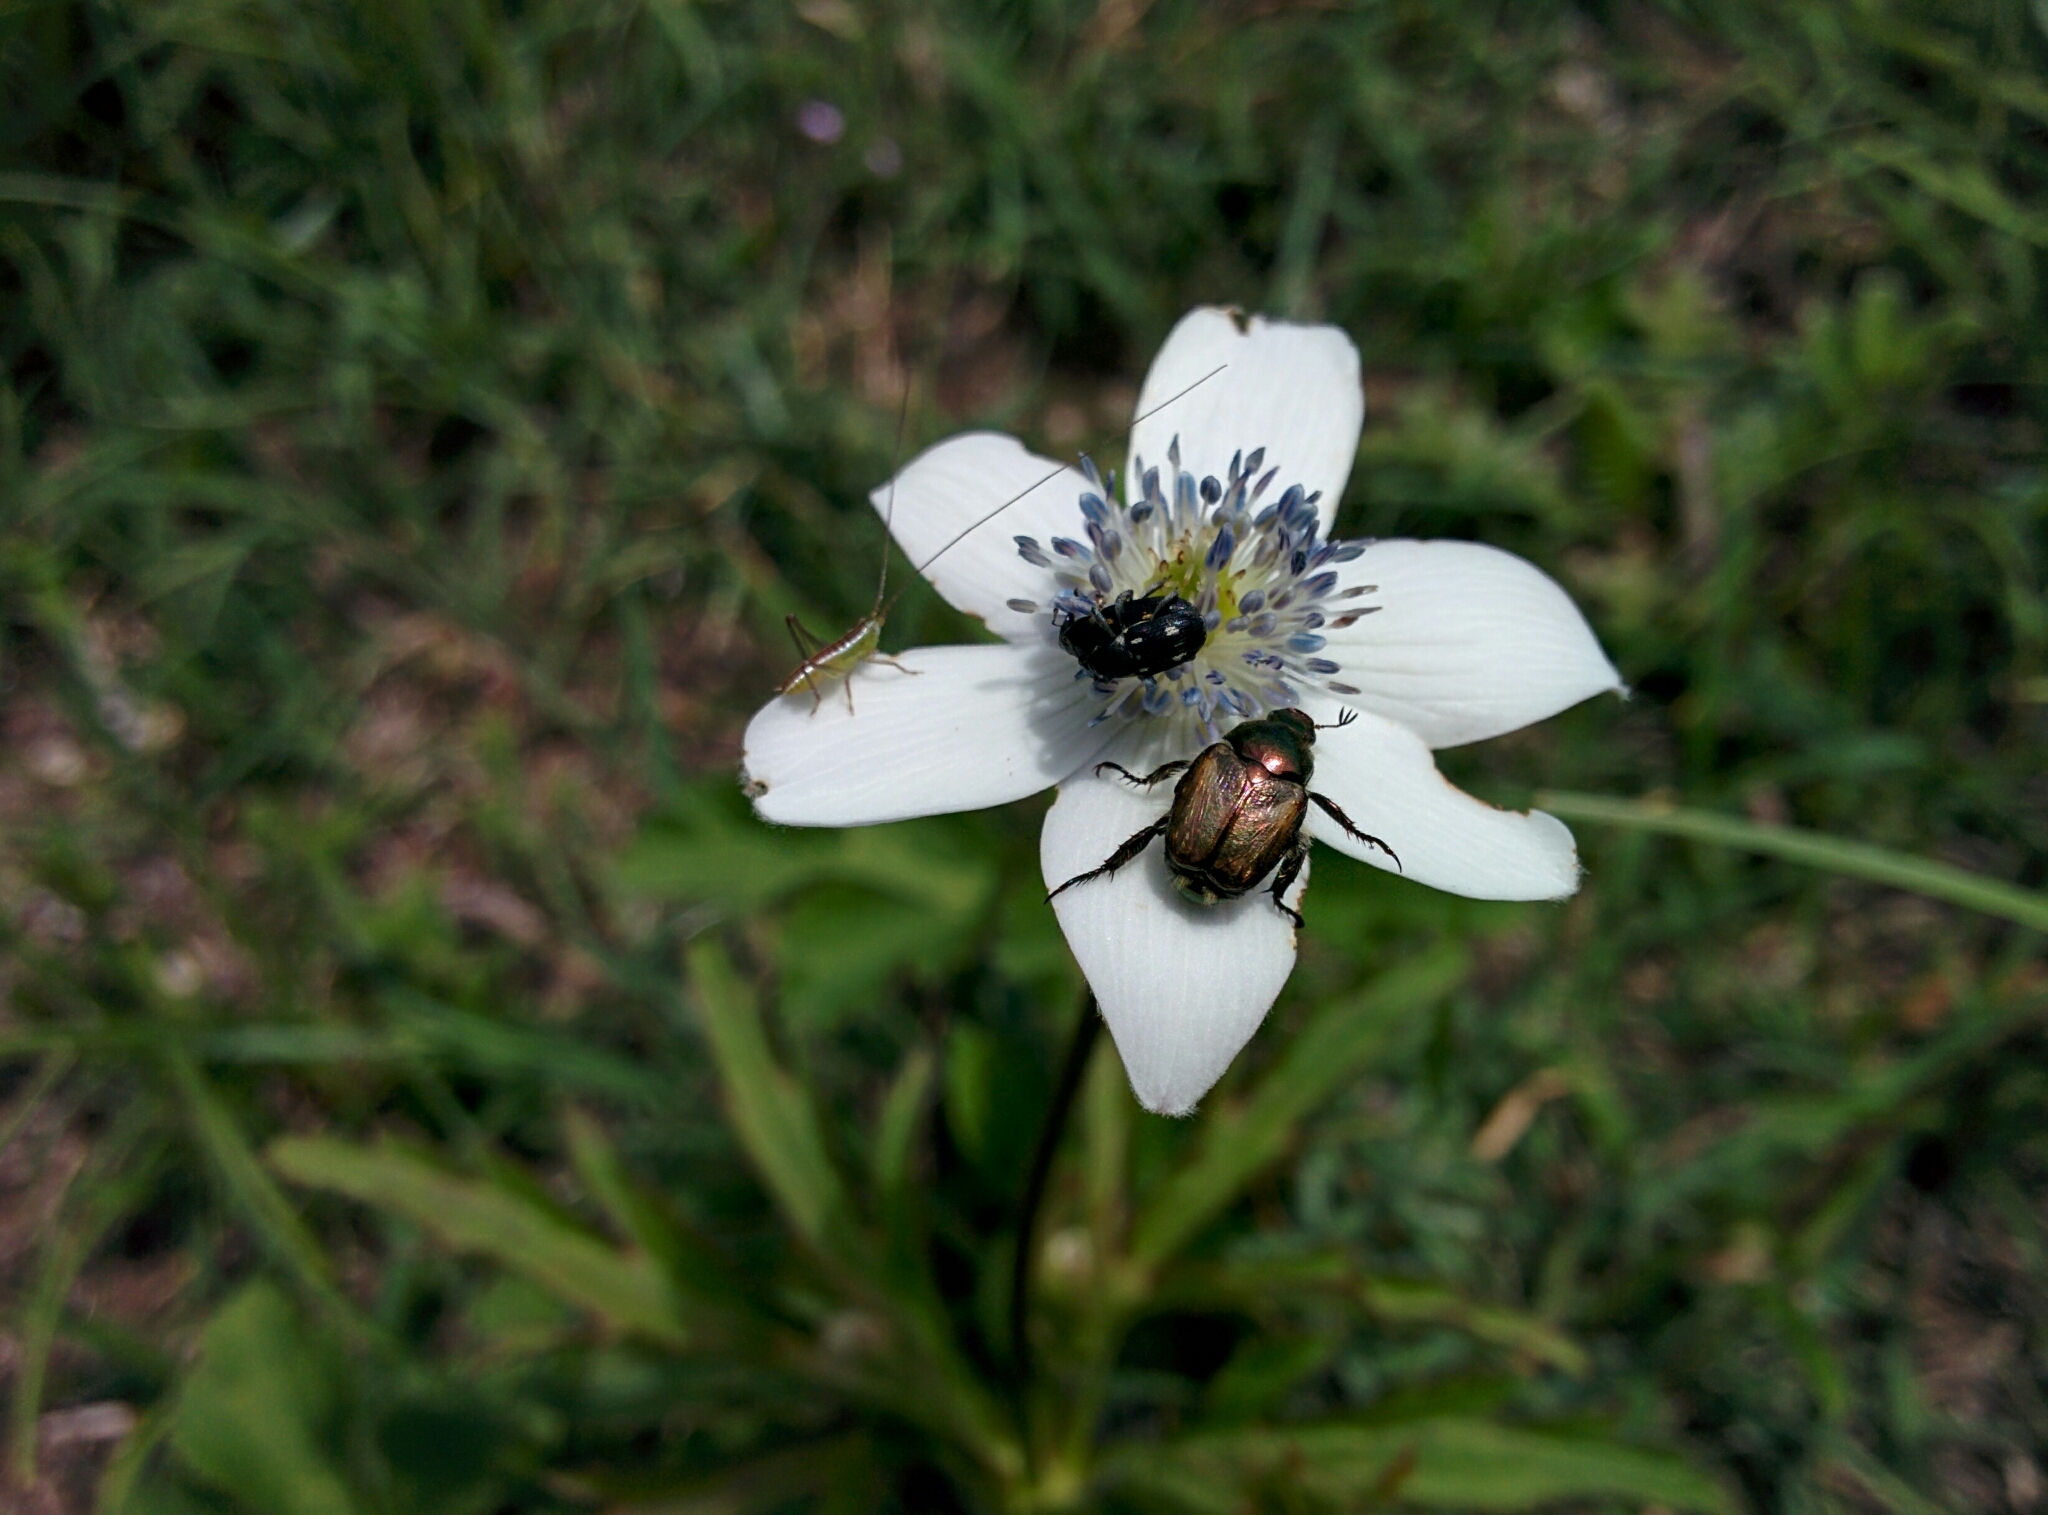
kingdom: Plantae
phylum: Tracheophyta
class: Magnoliopsida
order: Ranunculales
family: Ranunculaceae
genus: Eriocapitella
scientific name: Eriocapitella rivularis
